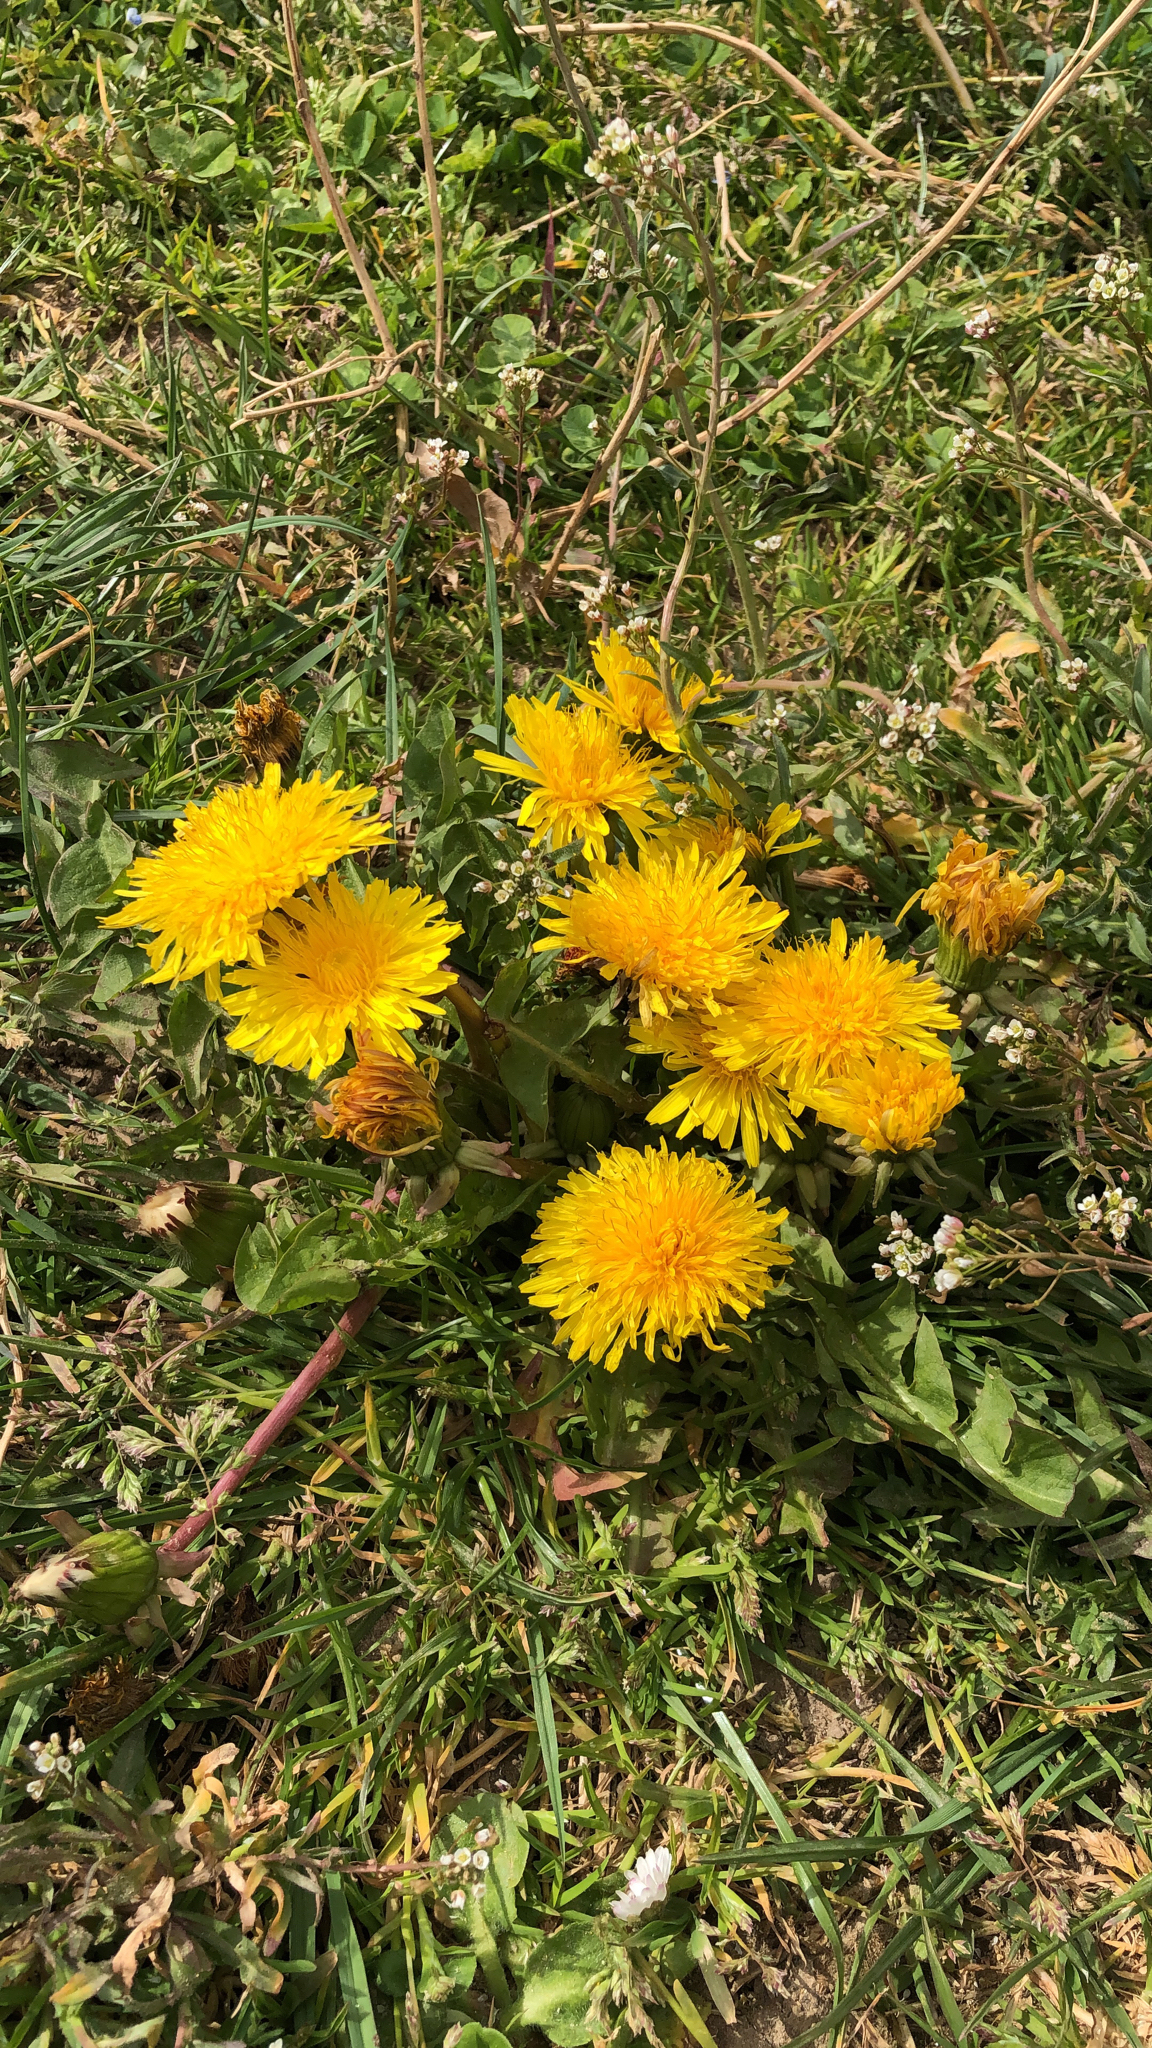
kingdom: Plantae
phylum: Tracheophyta
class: Magnoliopsida
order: Asterales
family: Asteraceae
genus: Taraxacum
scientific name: Taraxacum officinale
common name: Common dandelion
